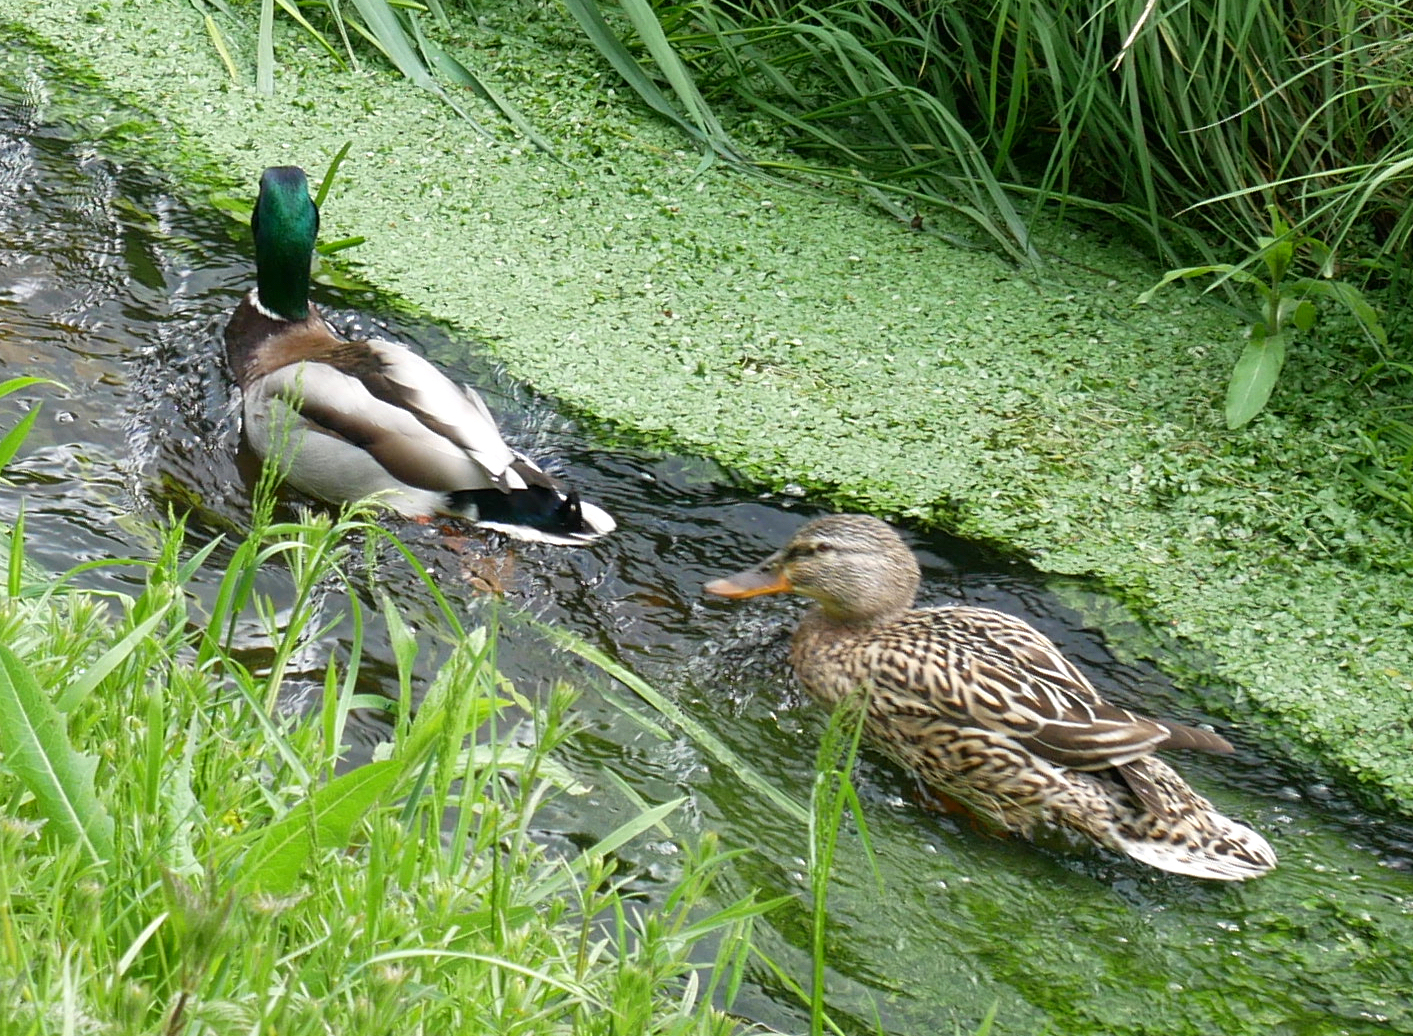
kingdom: Animalia
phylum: Chordata
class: Aves
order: Anseriformes
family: Anatidae
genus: Anas
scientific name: Anas platyrhynchos
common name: Mallard
